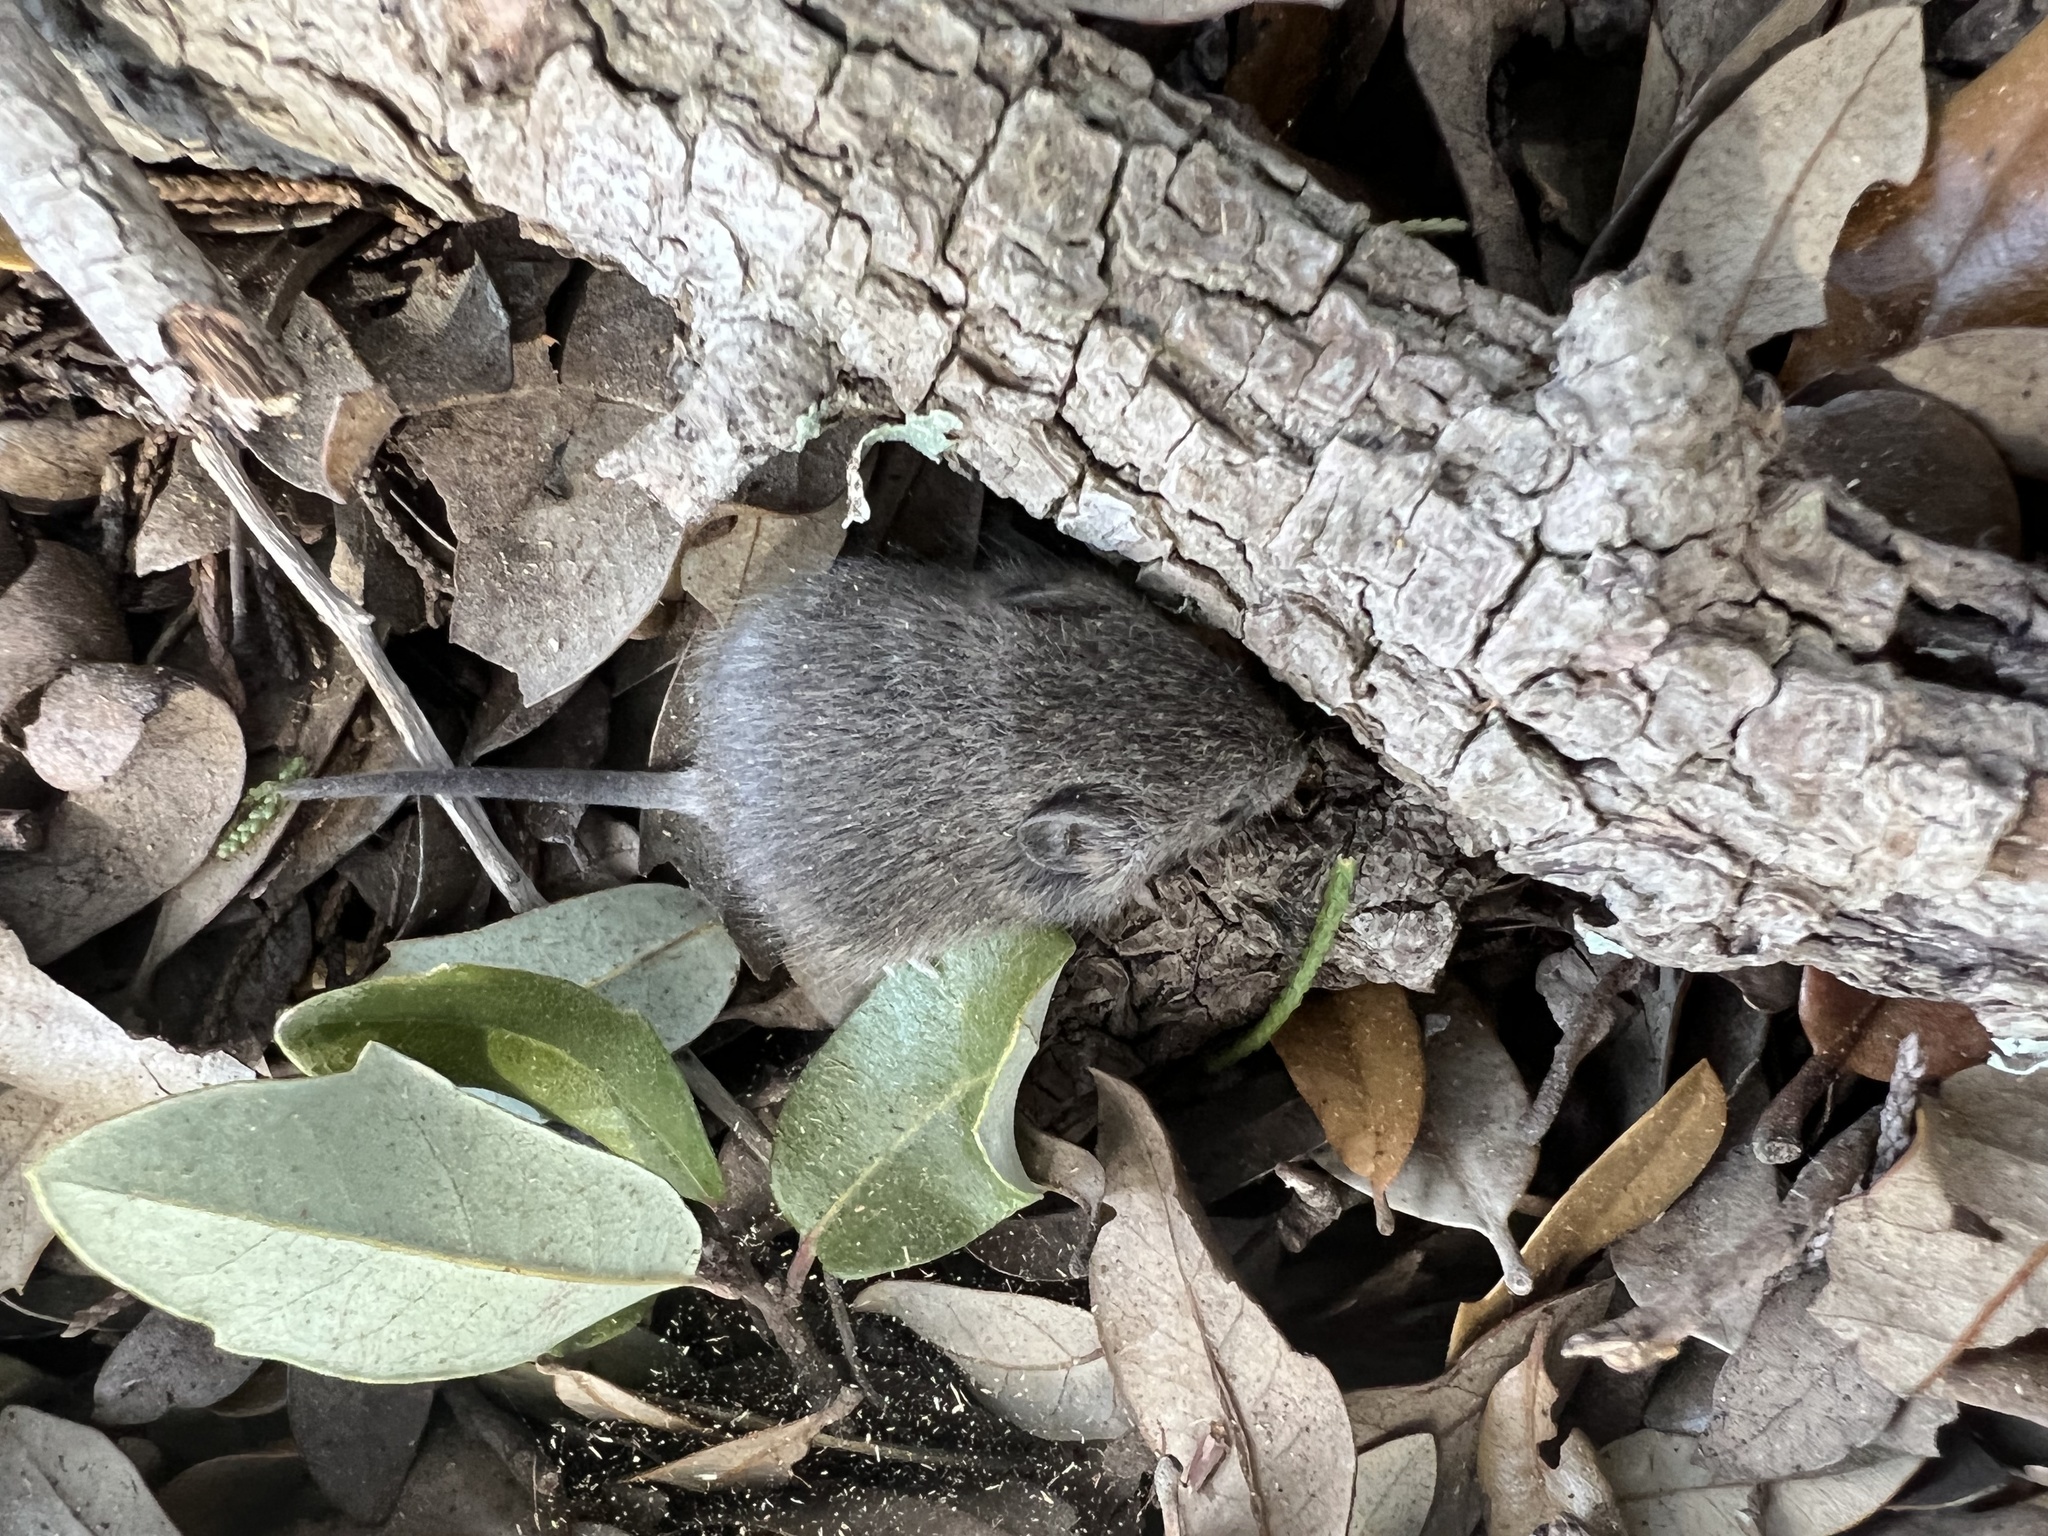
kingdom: Animalia
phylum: Chordata
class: Mammalia
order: Rodentia
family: Cricetidae
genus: Sigmodon
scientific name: Sigmodon hispidus
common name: Hispid cotton rat
